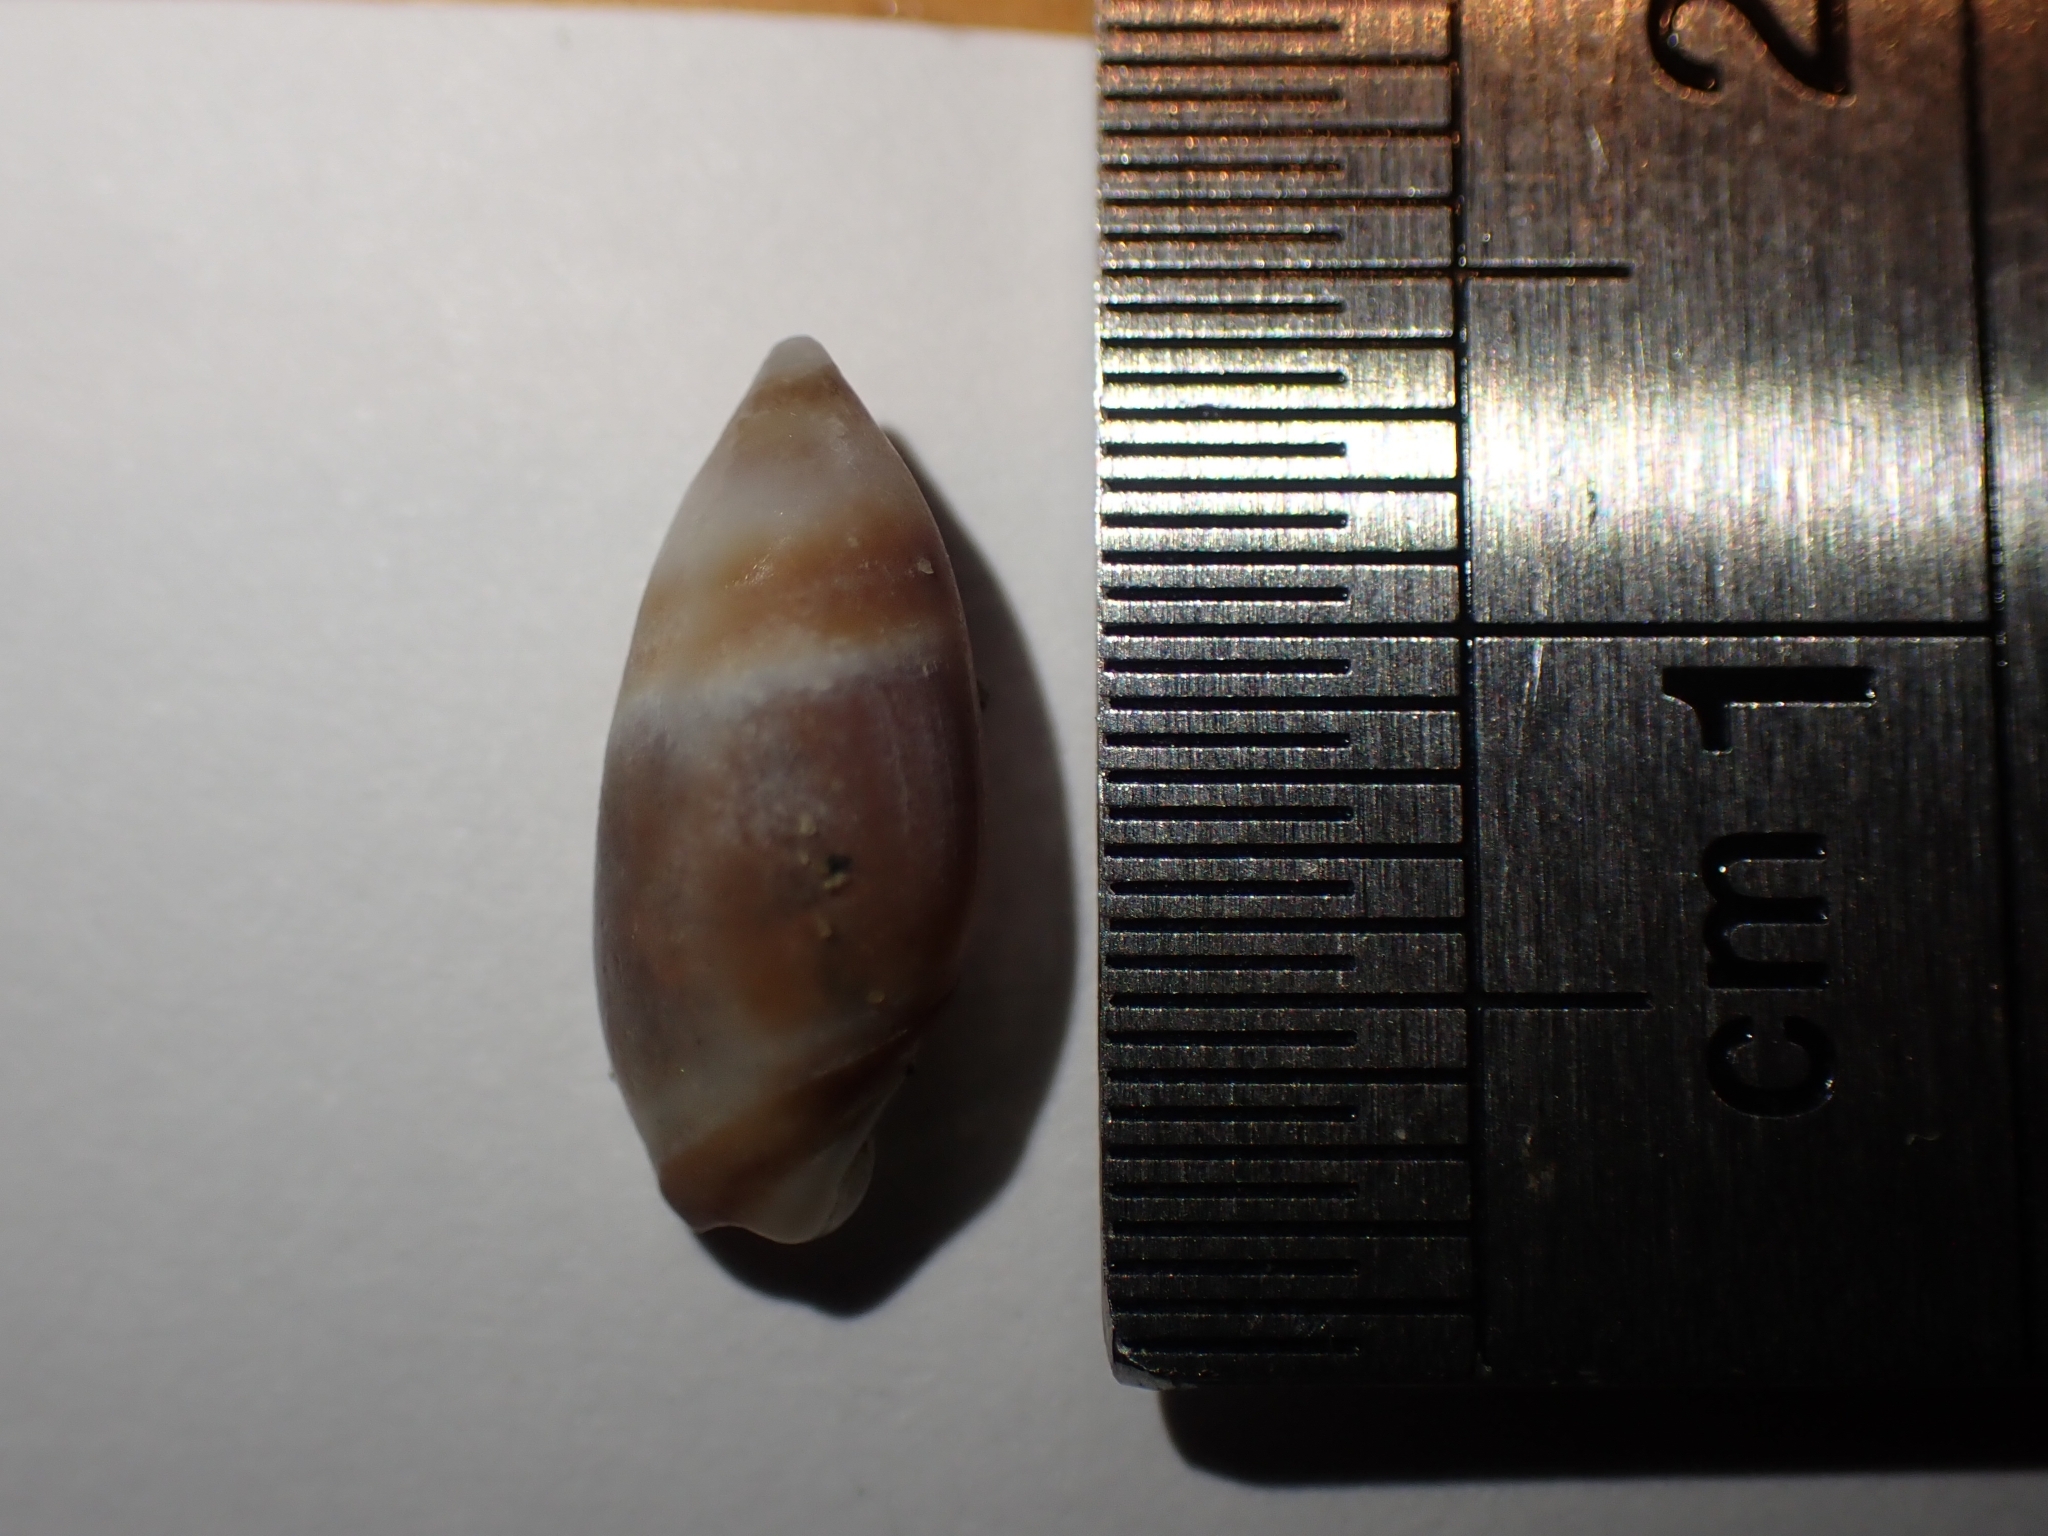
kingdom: Animalia
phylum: Mollusca
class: Gastropoda
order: Neogastropoda
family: Ancillariidae
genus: Amalda
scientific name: Amalda novaezelandiae
